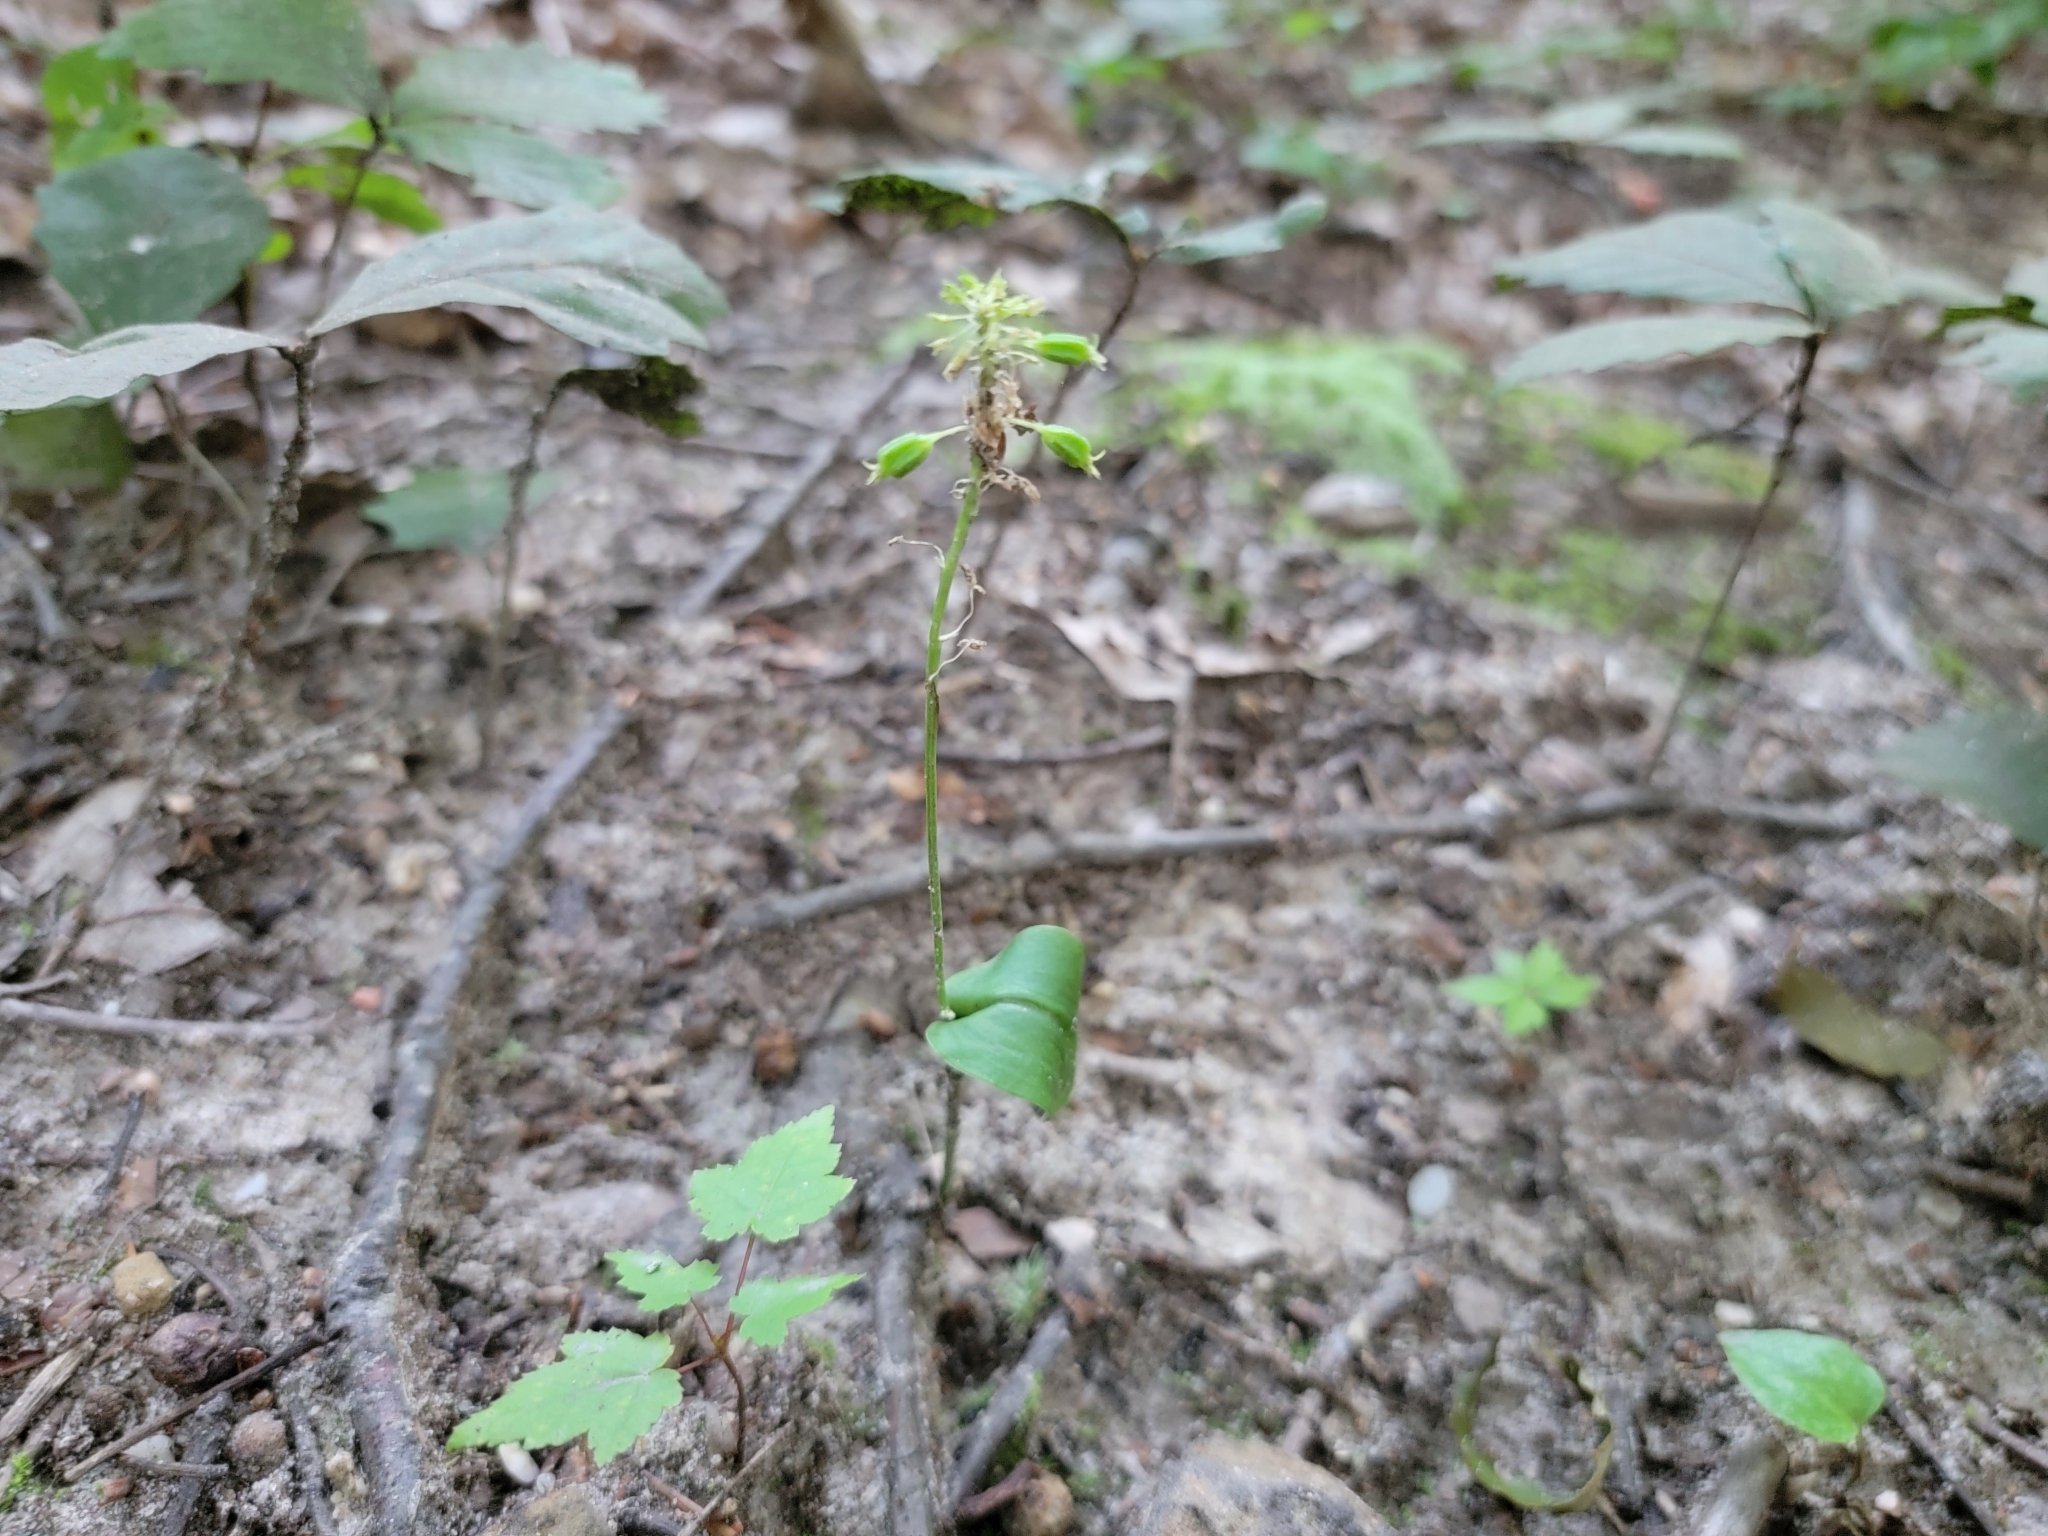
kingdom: Plantae
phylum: Tracheophyta
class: Liliopsida
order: Asparagales
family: Orchidaceae
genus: Malaxis
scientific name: Malaxis unifolia
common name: Green adder's-mouth
